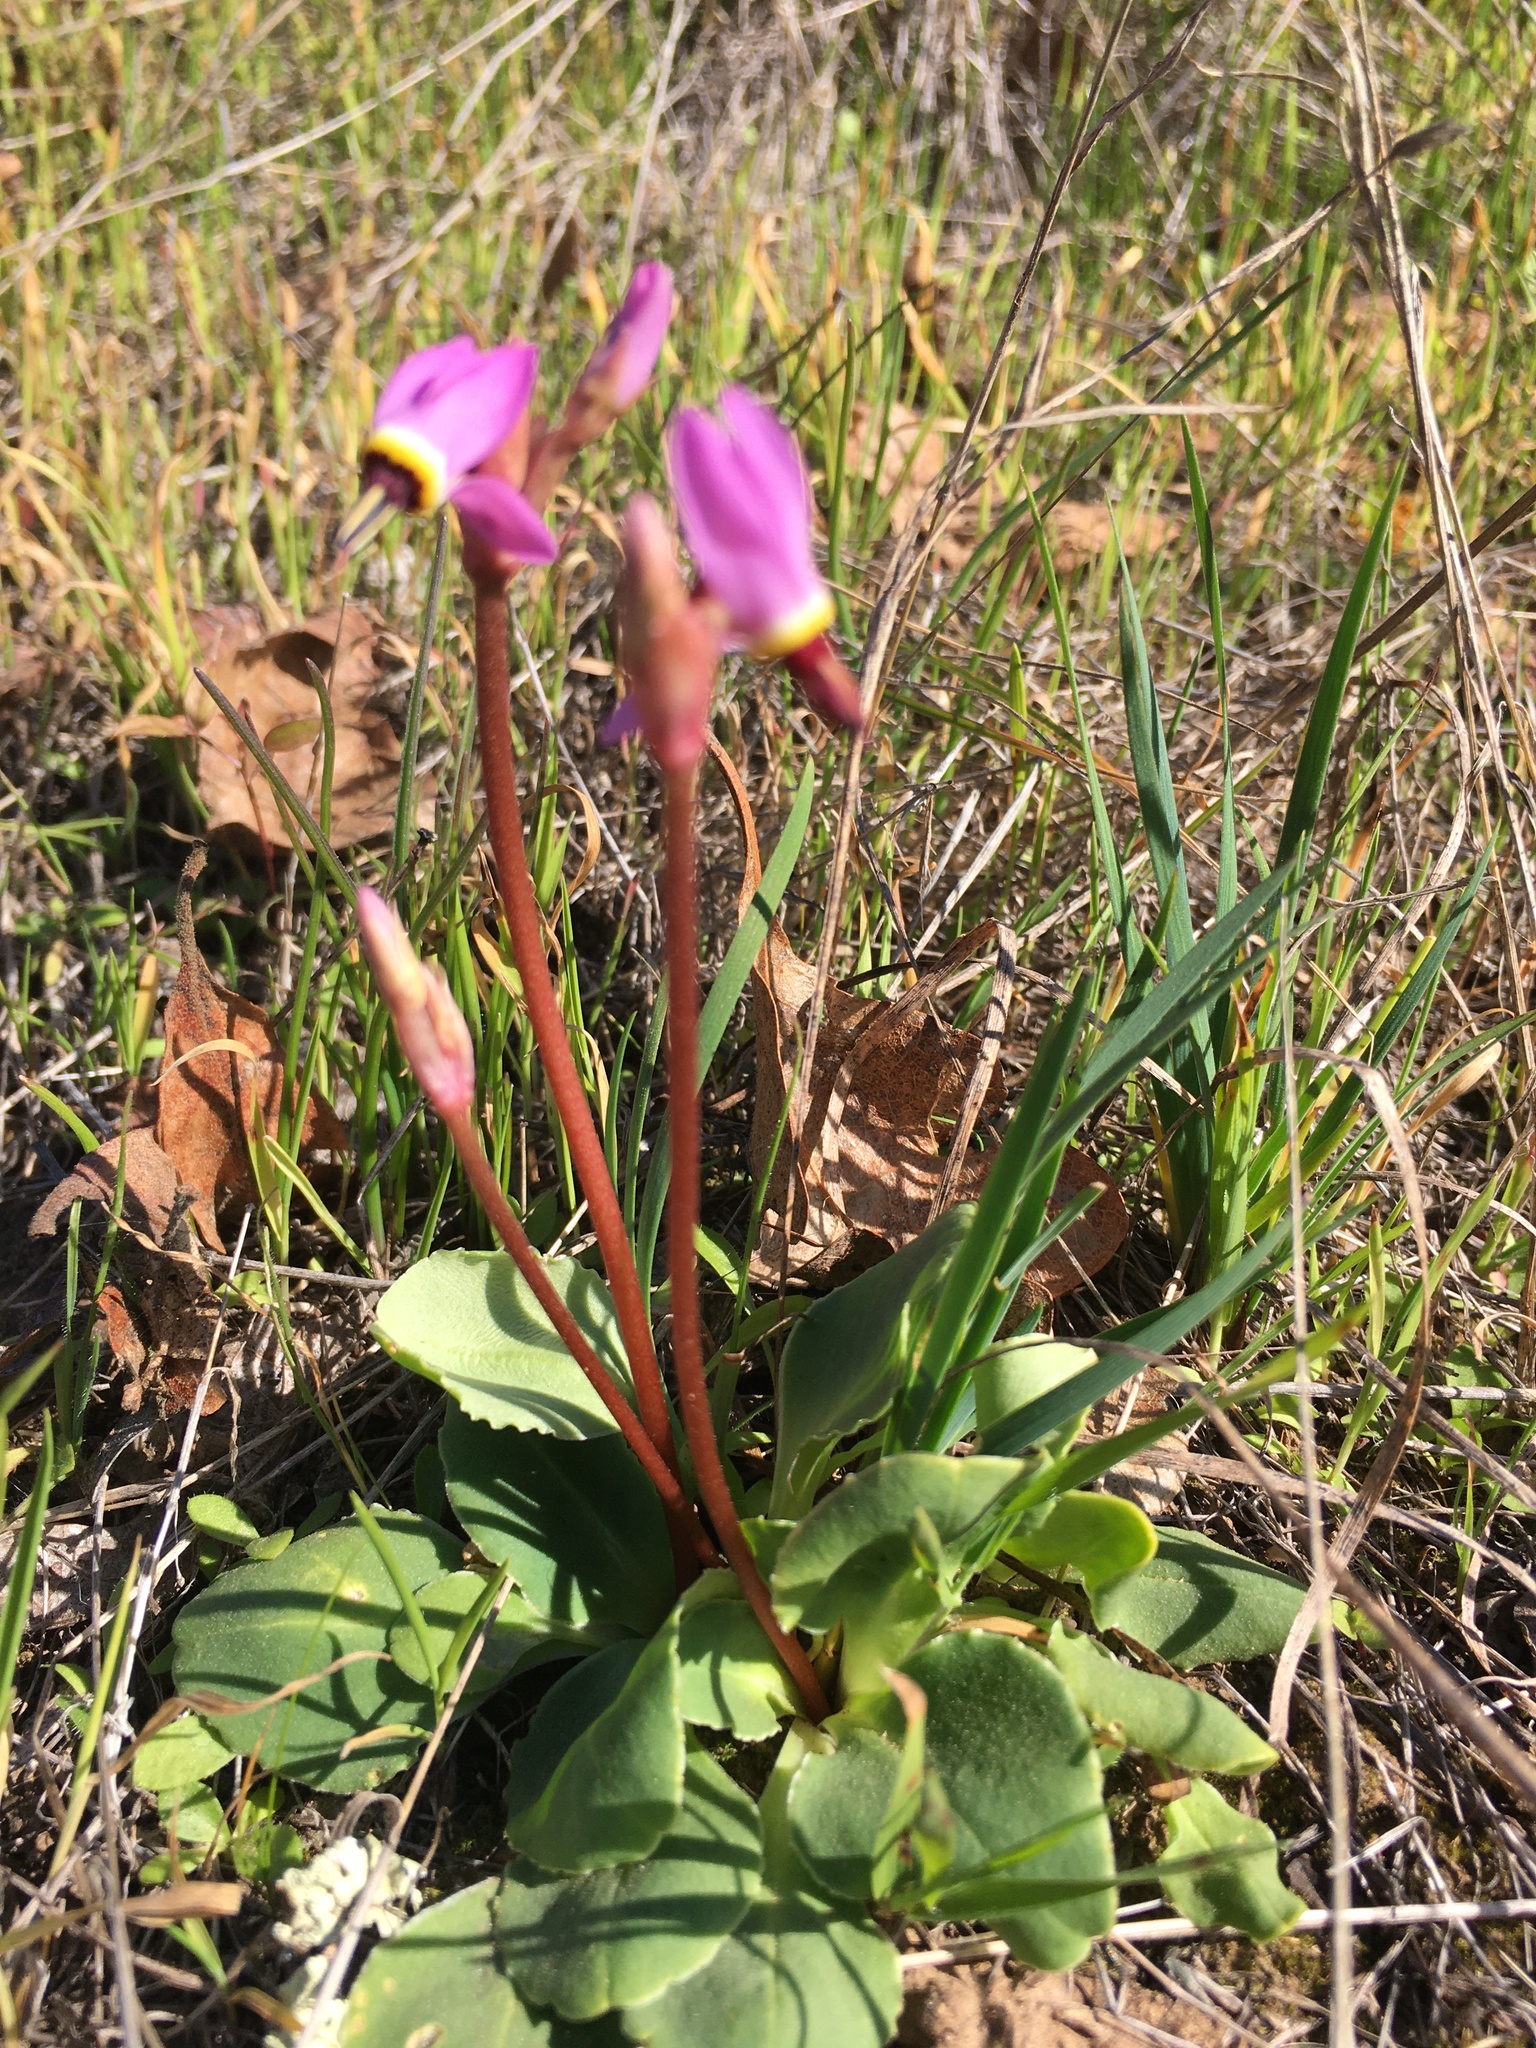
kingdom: Plantae
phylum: Tracheophyta
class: Magnoliopsida
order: Ericales
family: Primulaceae
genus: Dodecatheon
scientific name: Dodecatheon hendersonii
